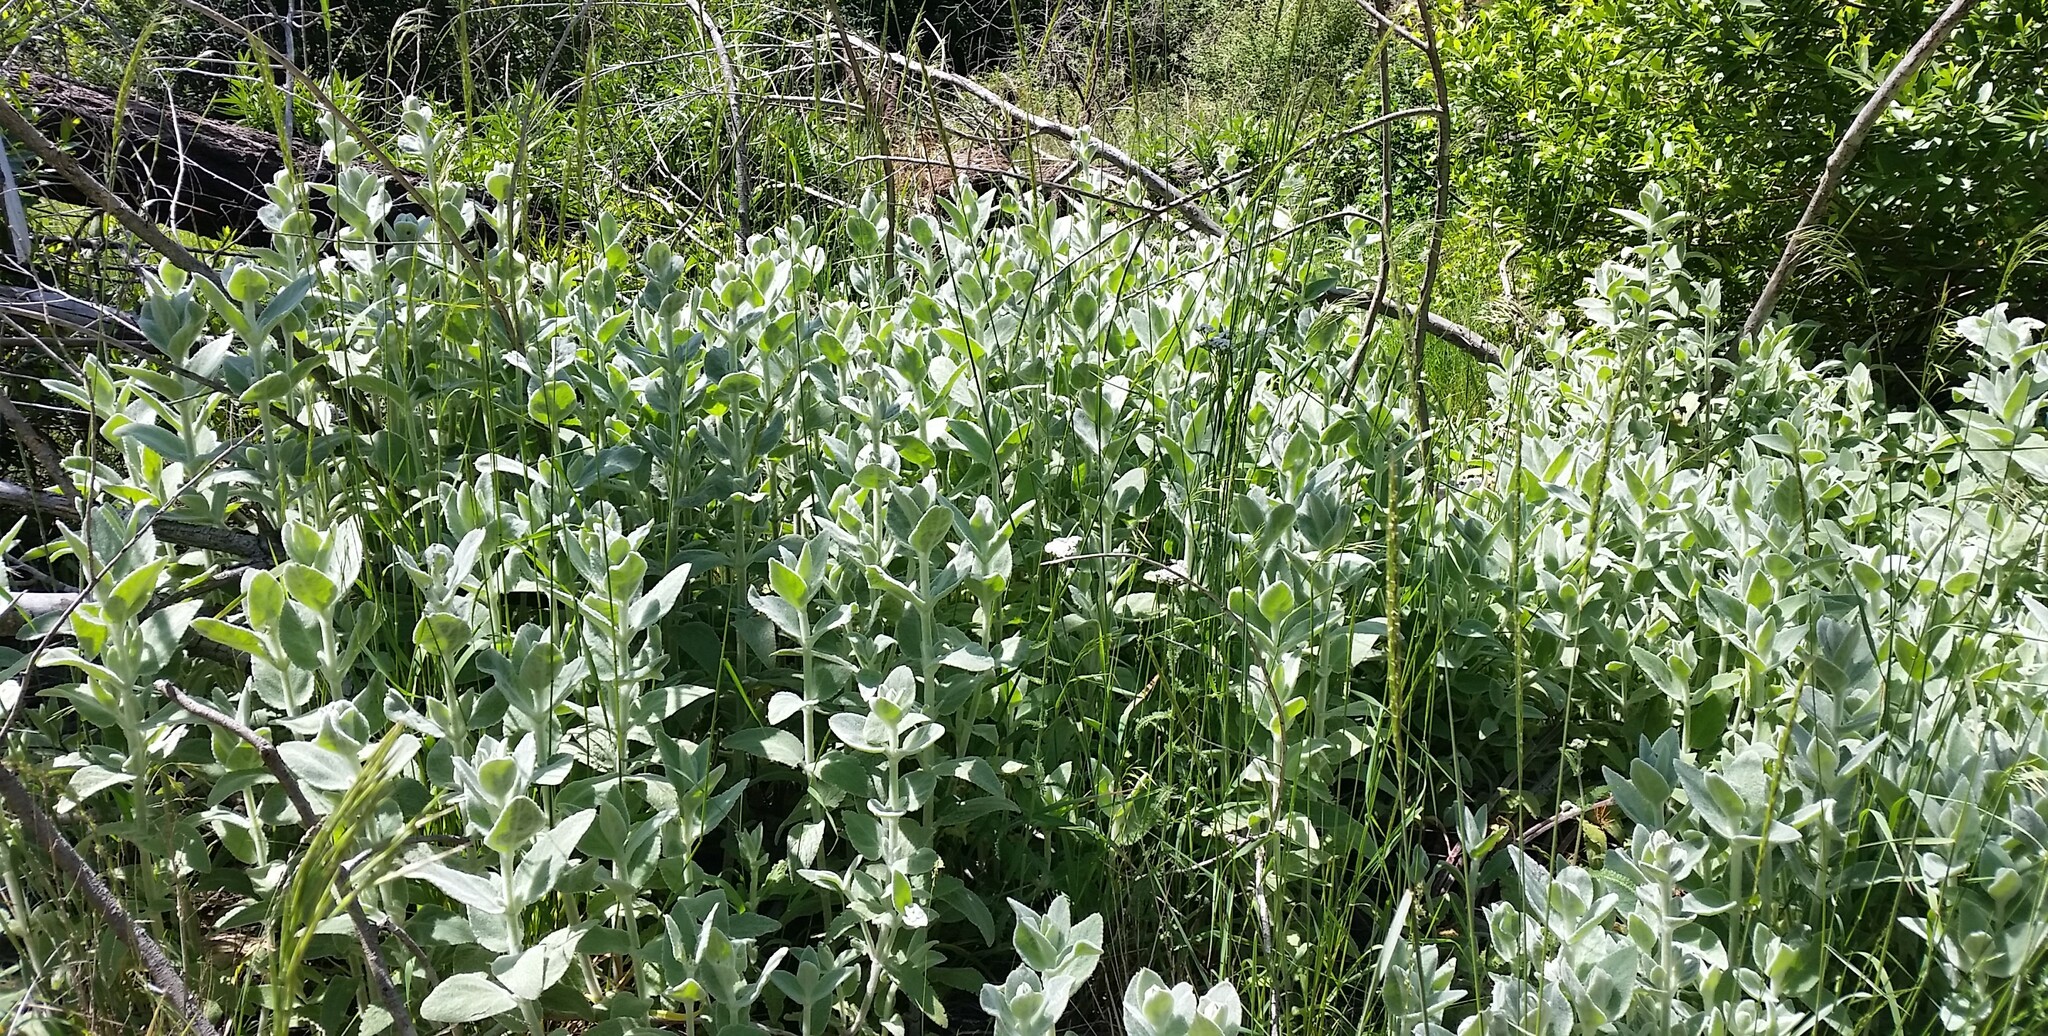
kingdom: Plantae
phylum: Tracheophyta
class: Magnoliopsida
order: Lamiales
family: Lamiaceae
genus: Stachys
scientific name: Stachys albens
